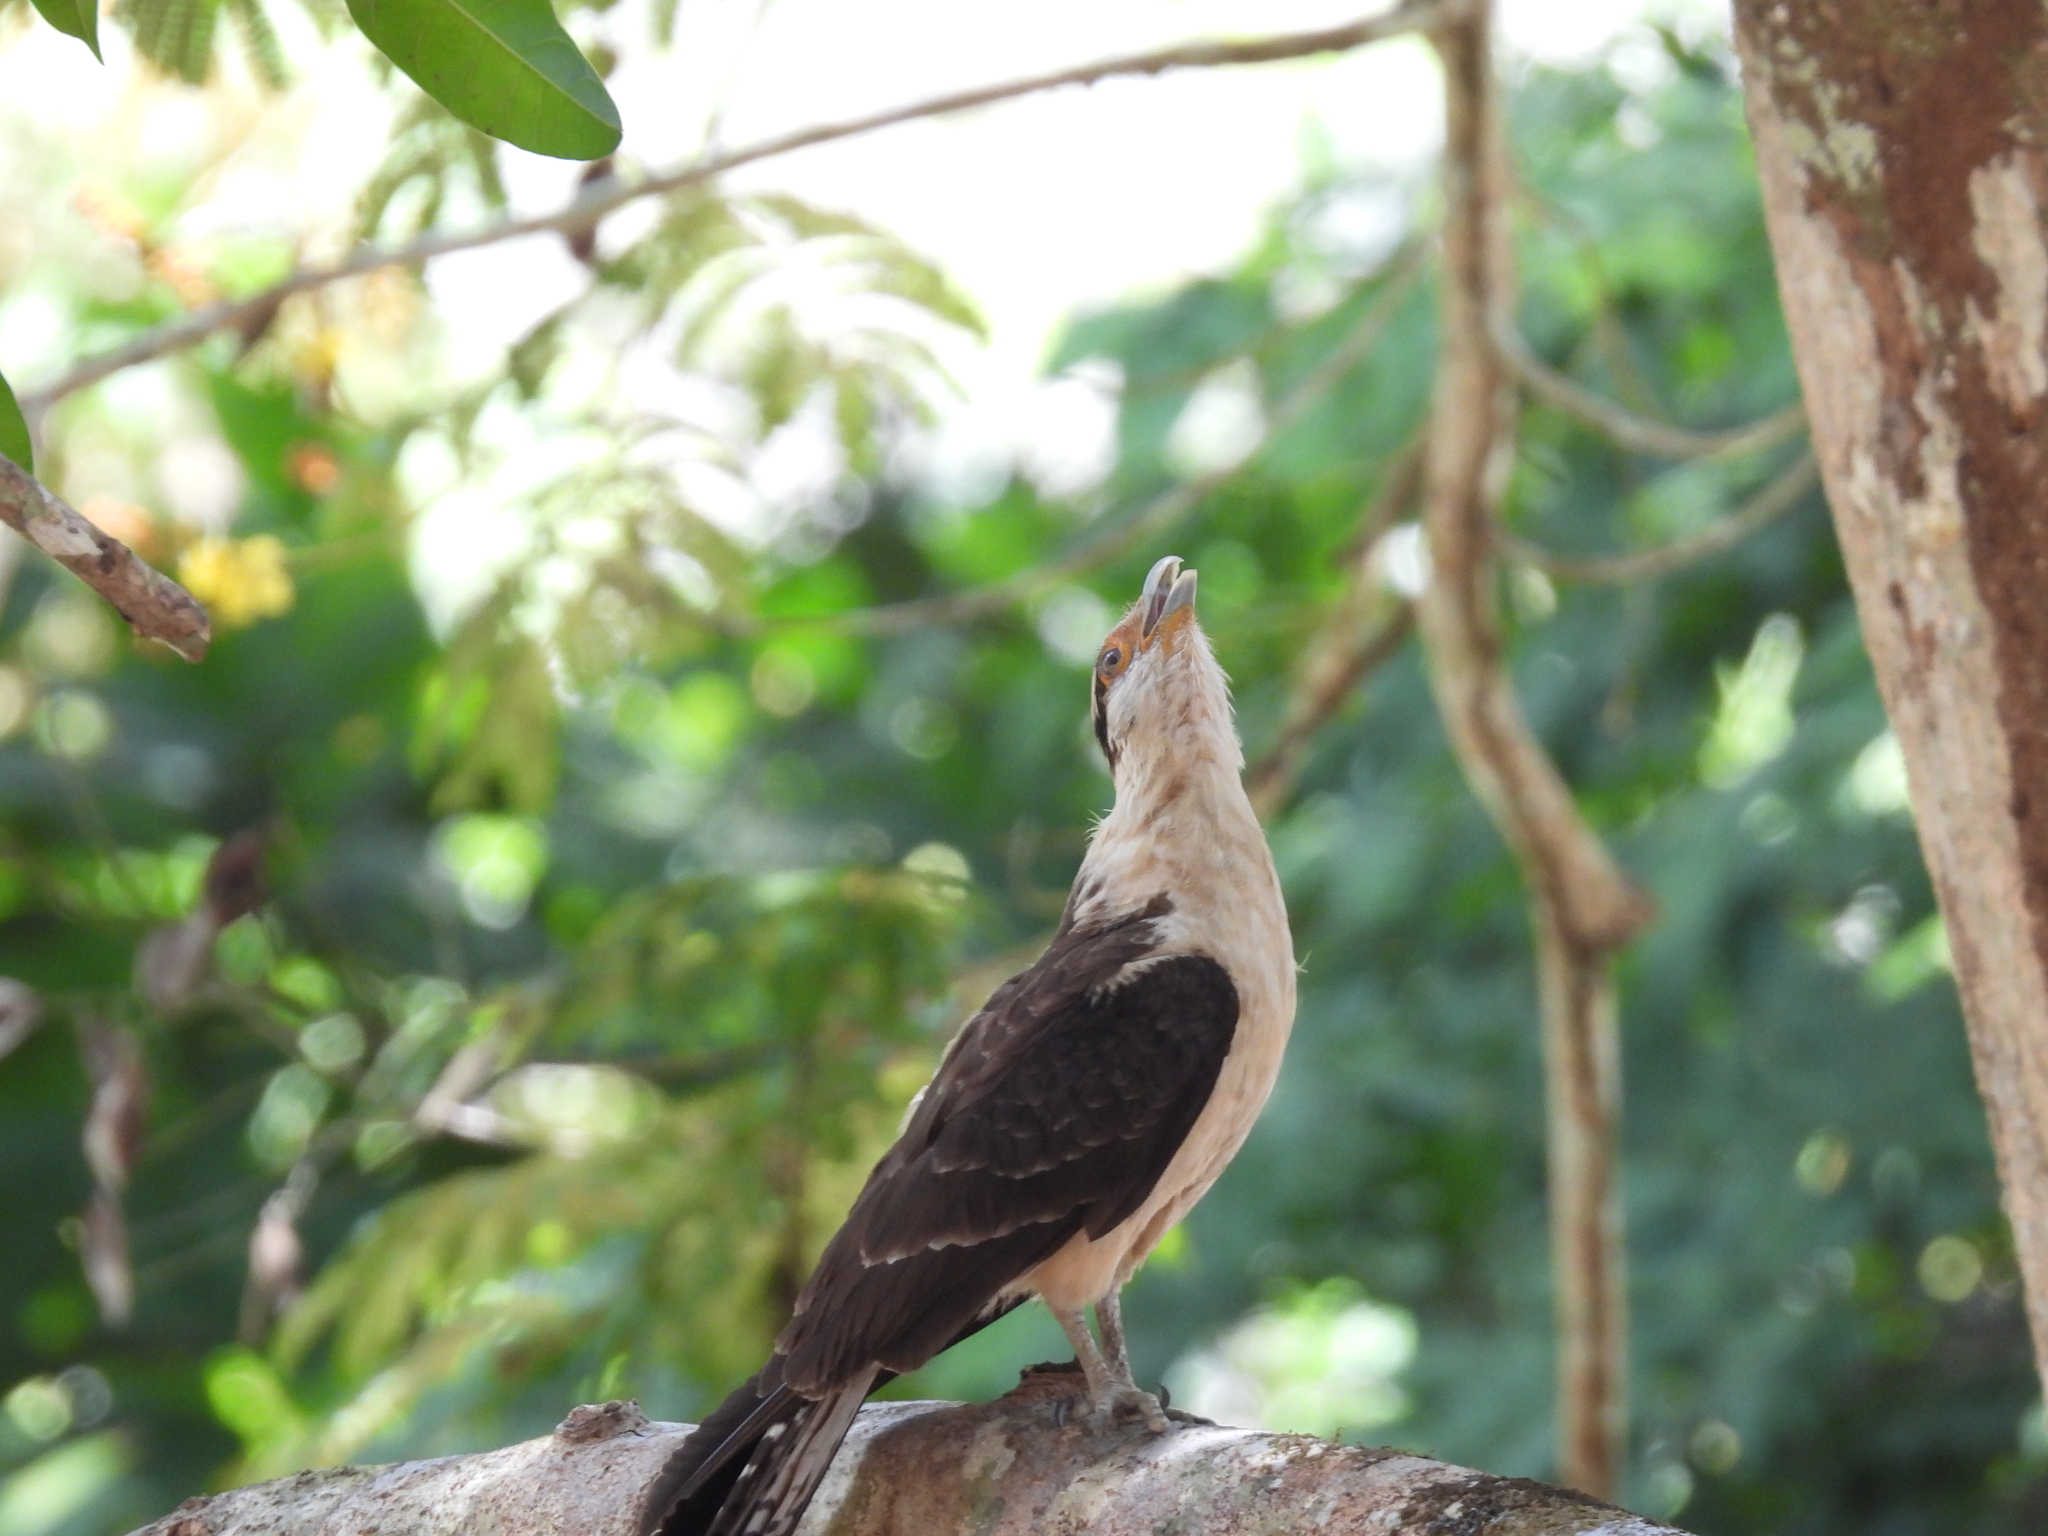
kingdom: Animalia
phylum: Chordata
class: Aves
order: Falconiformes
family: Falconidae
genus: Daptrius
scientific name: Daptrius
